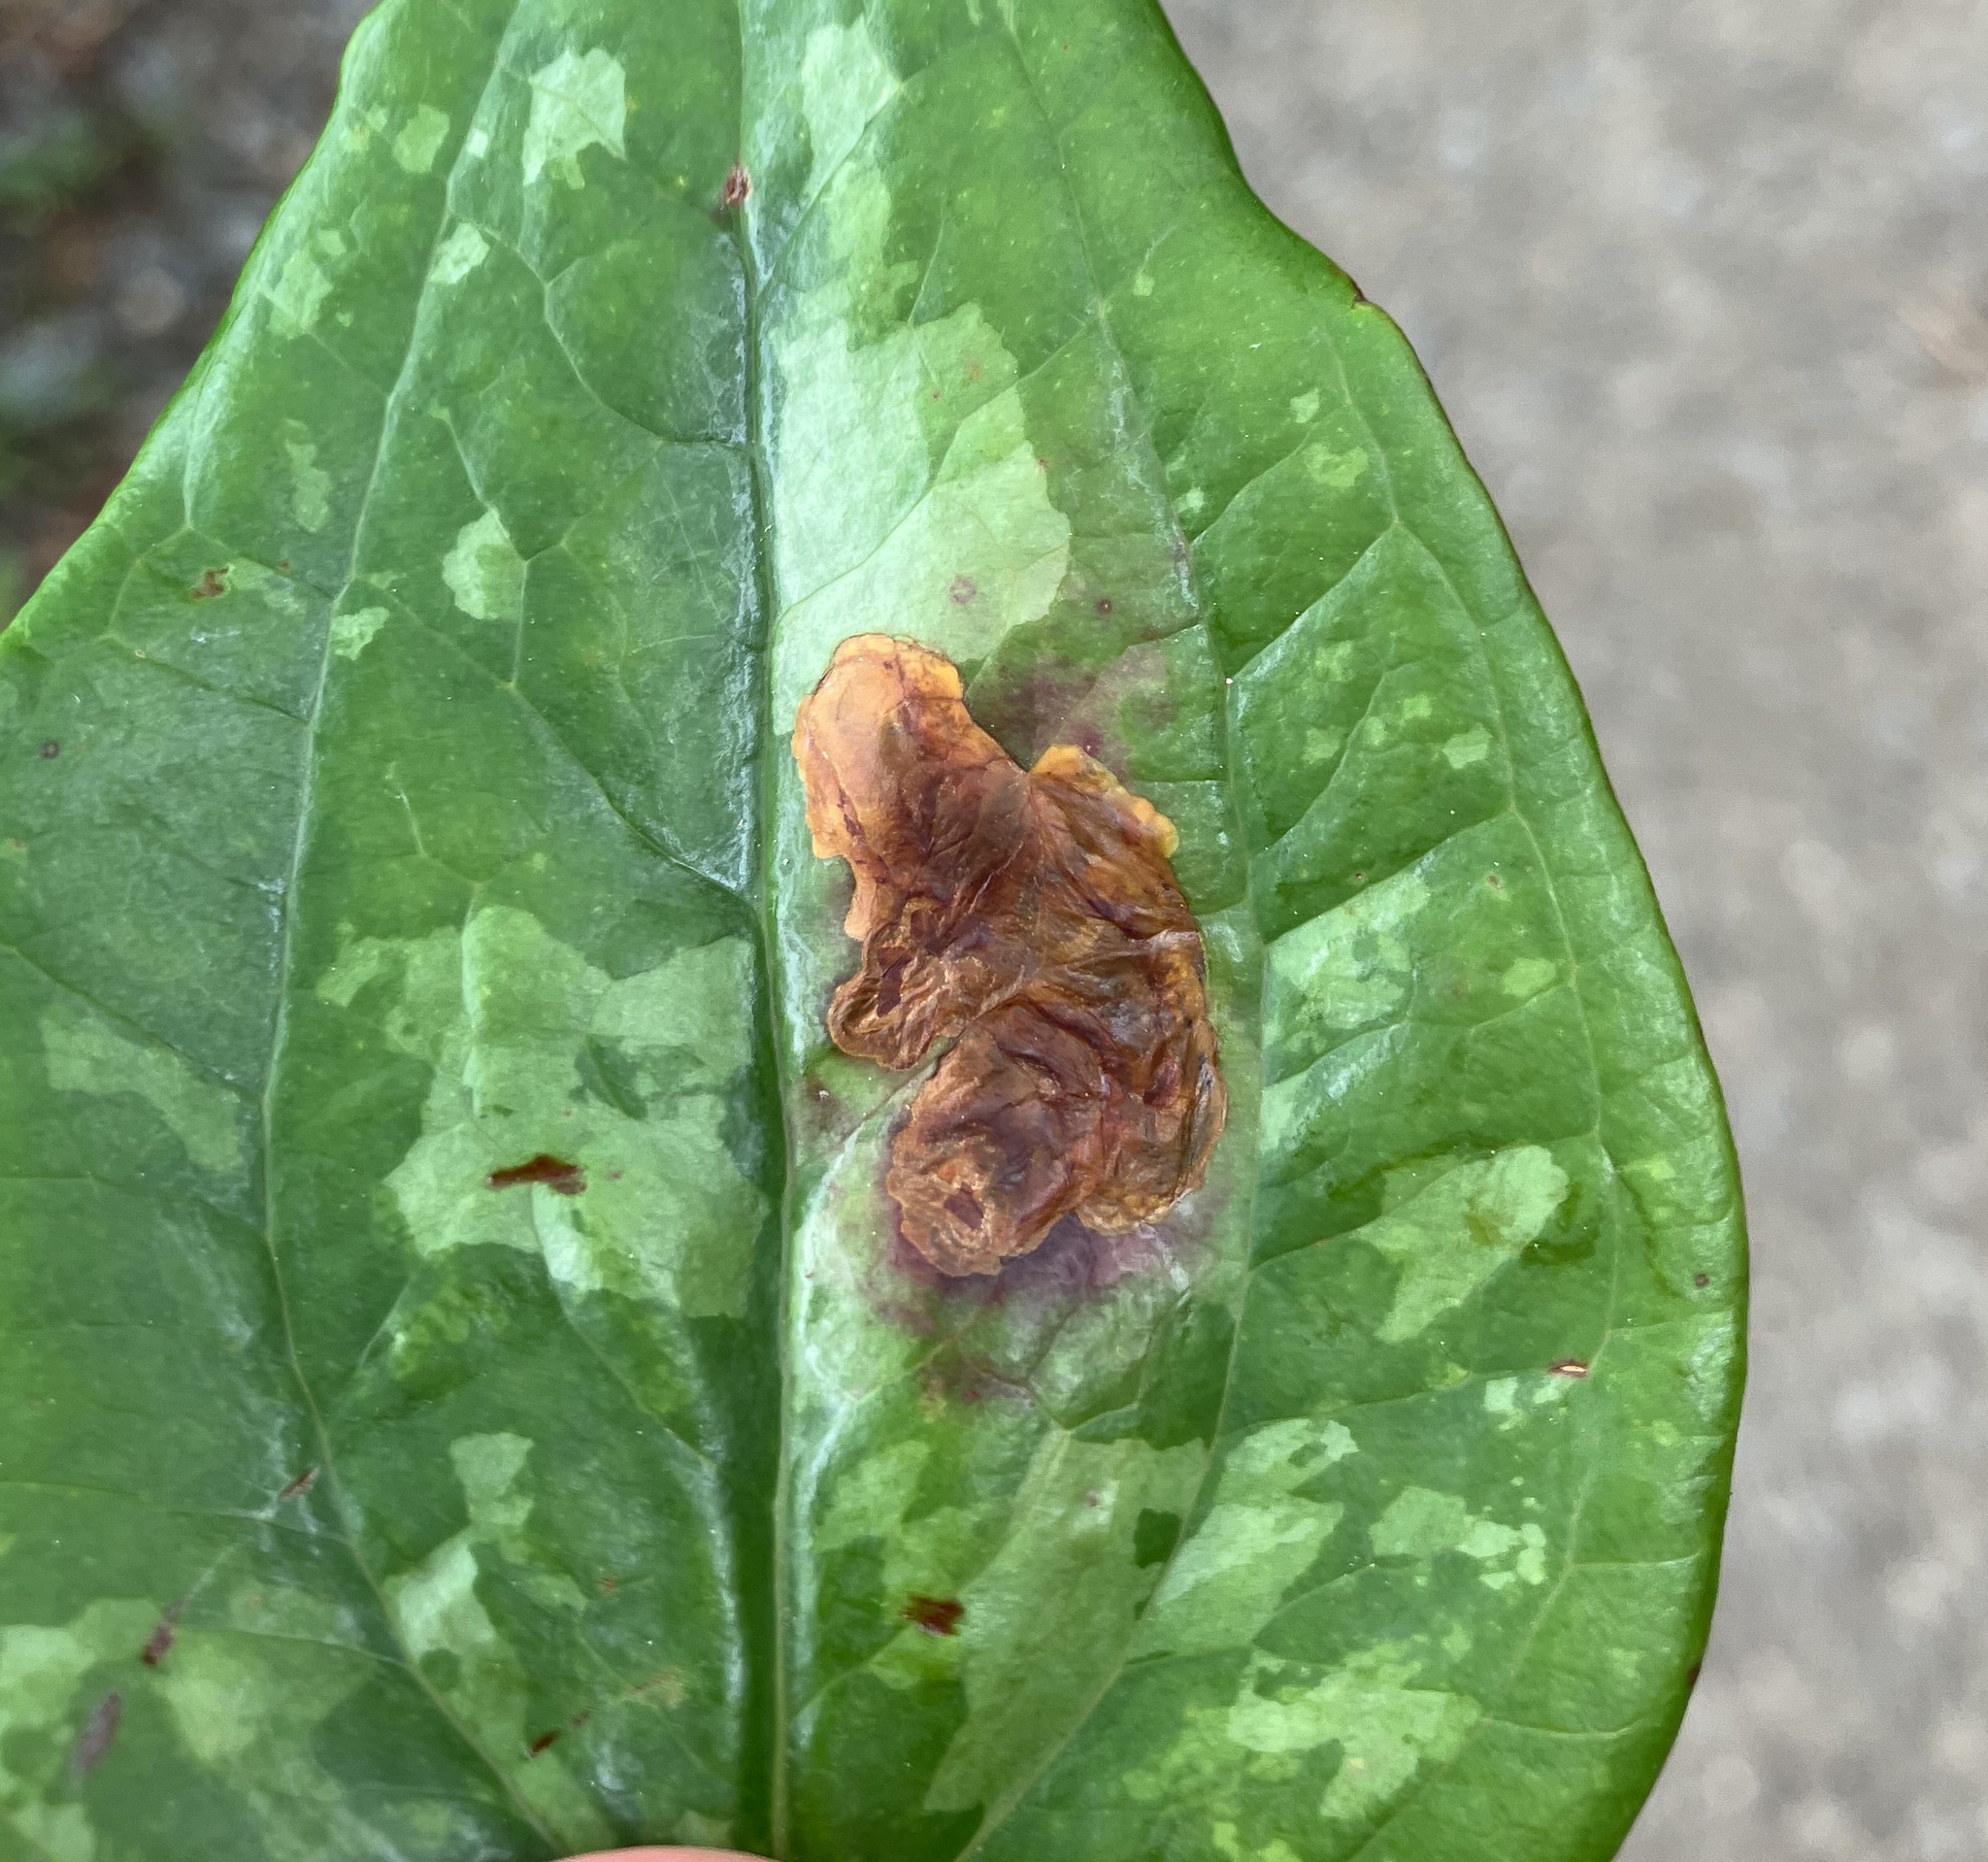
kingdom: Animalia
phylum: Arthropoda
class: Insecta
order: Lepidoptera
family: Lyonetiidae
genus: Leucoptera
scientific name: Leucoptera
